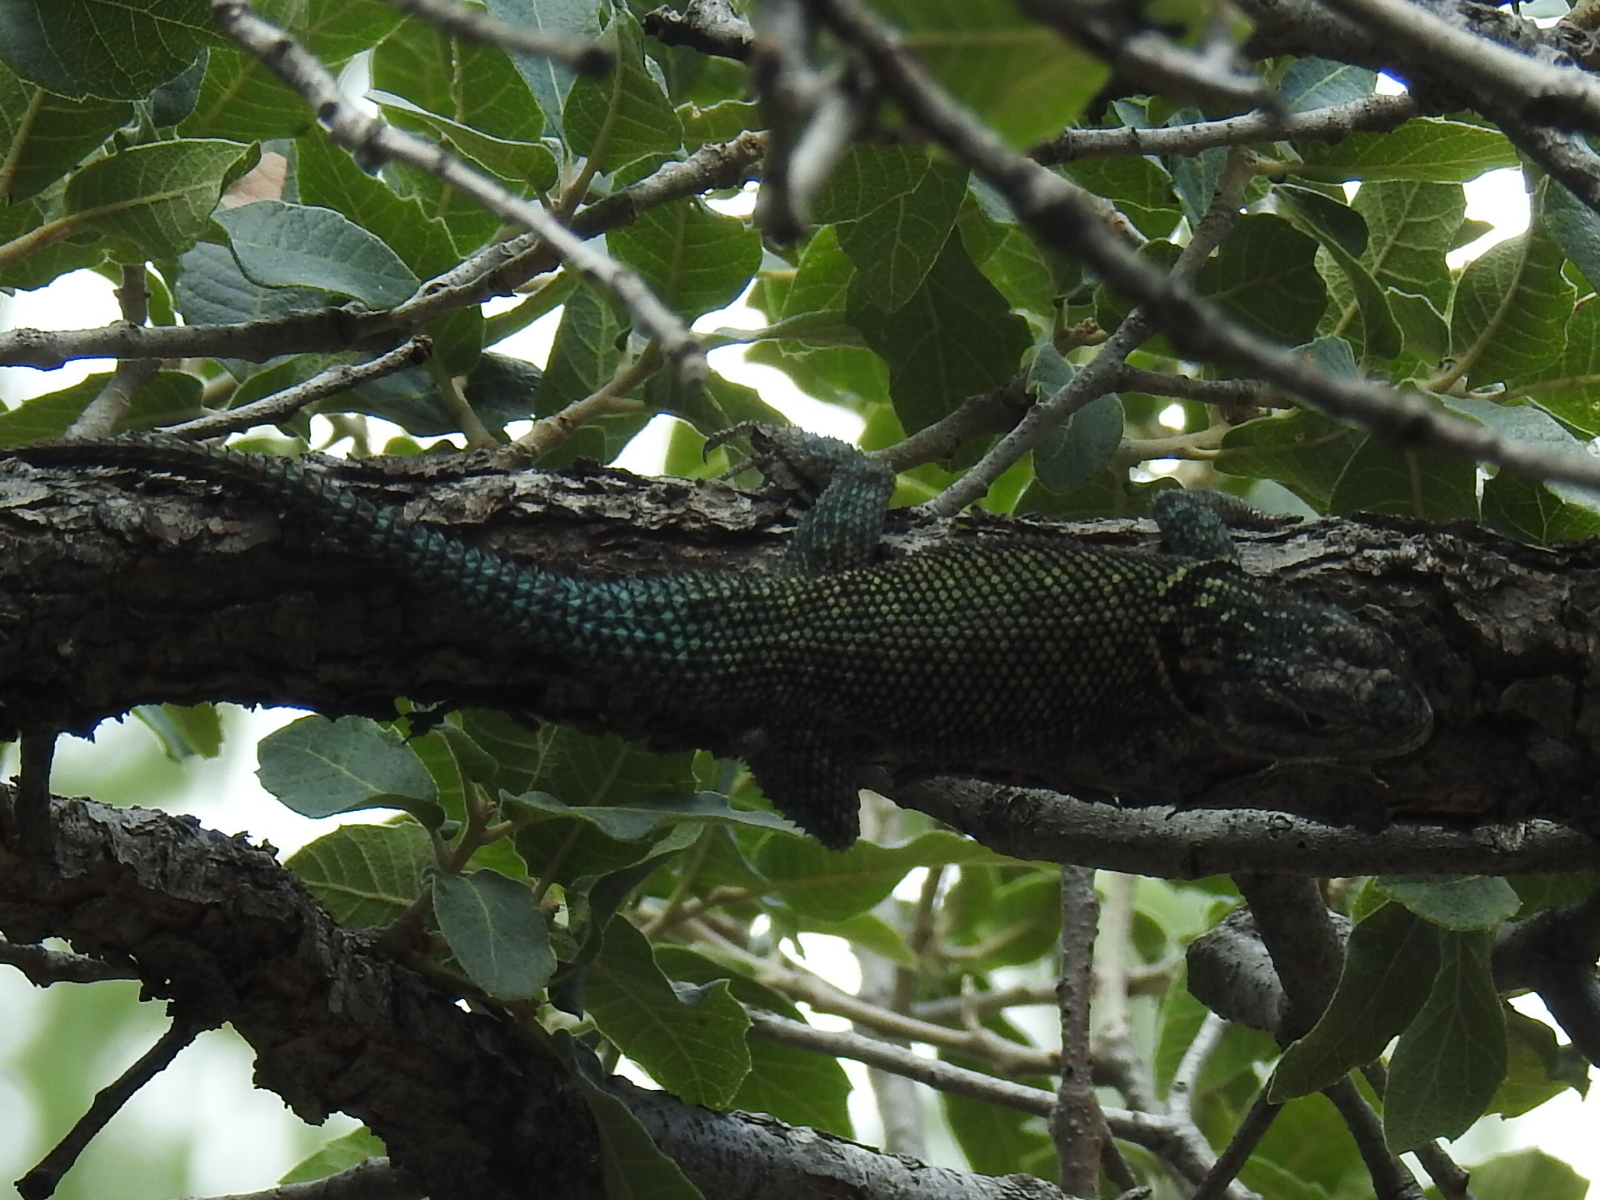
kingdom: Animalia
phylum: Chordata
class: Squamata
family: Phrynosomatidae
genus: Sceloporus
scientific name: Sceloporus jarrovii
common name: Yarrow's spiny lizard
